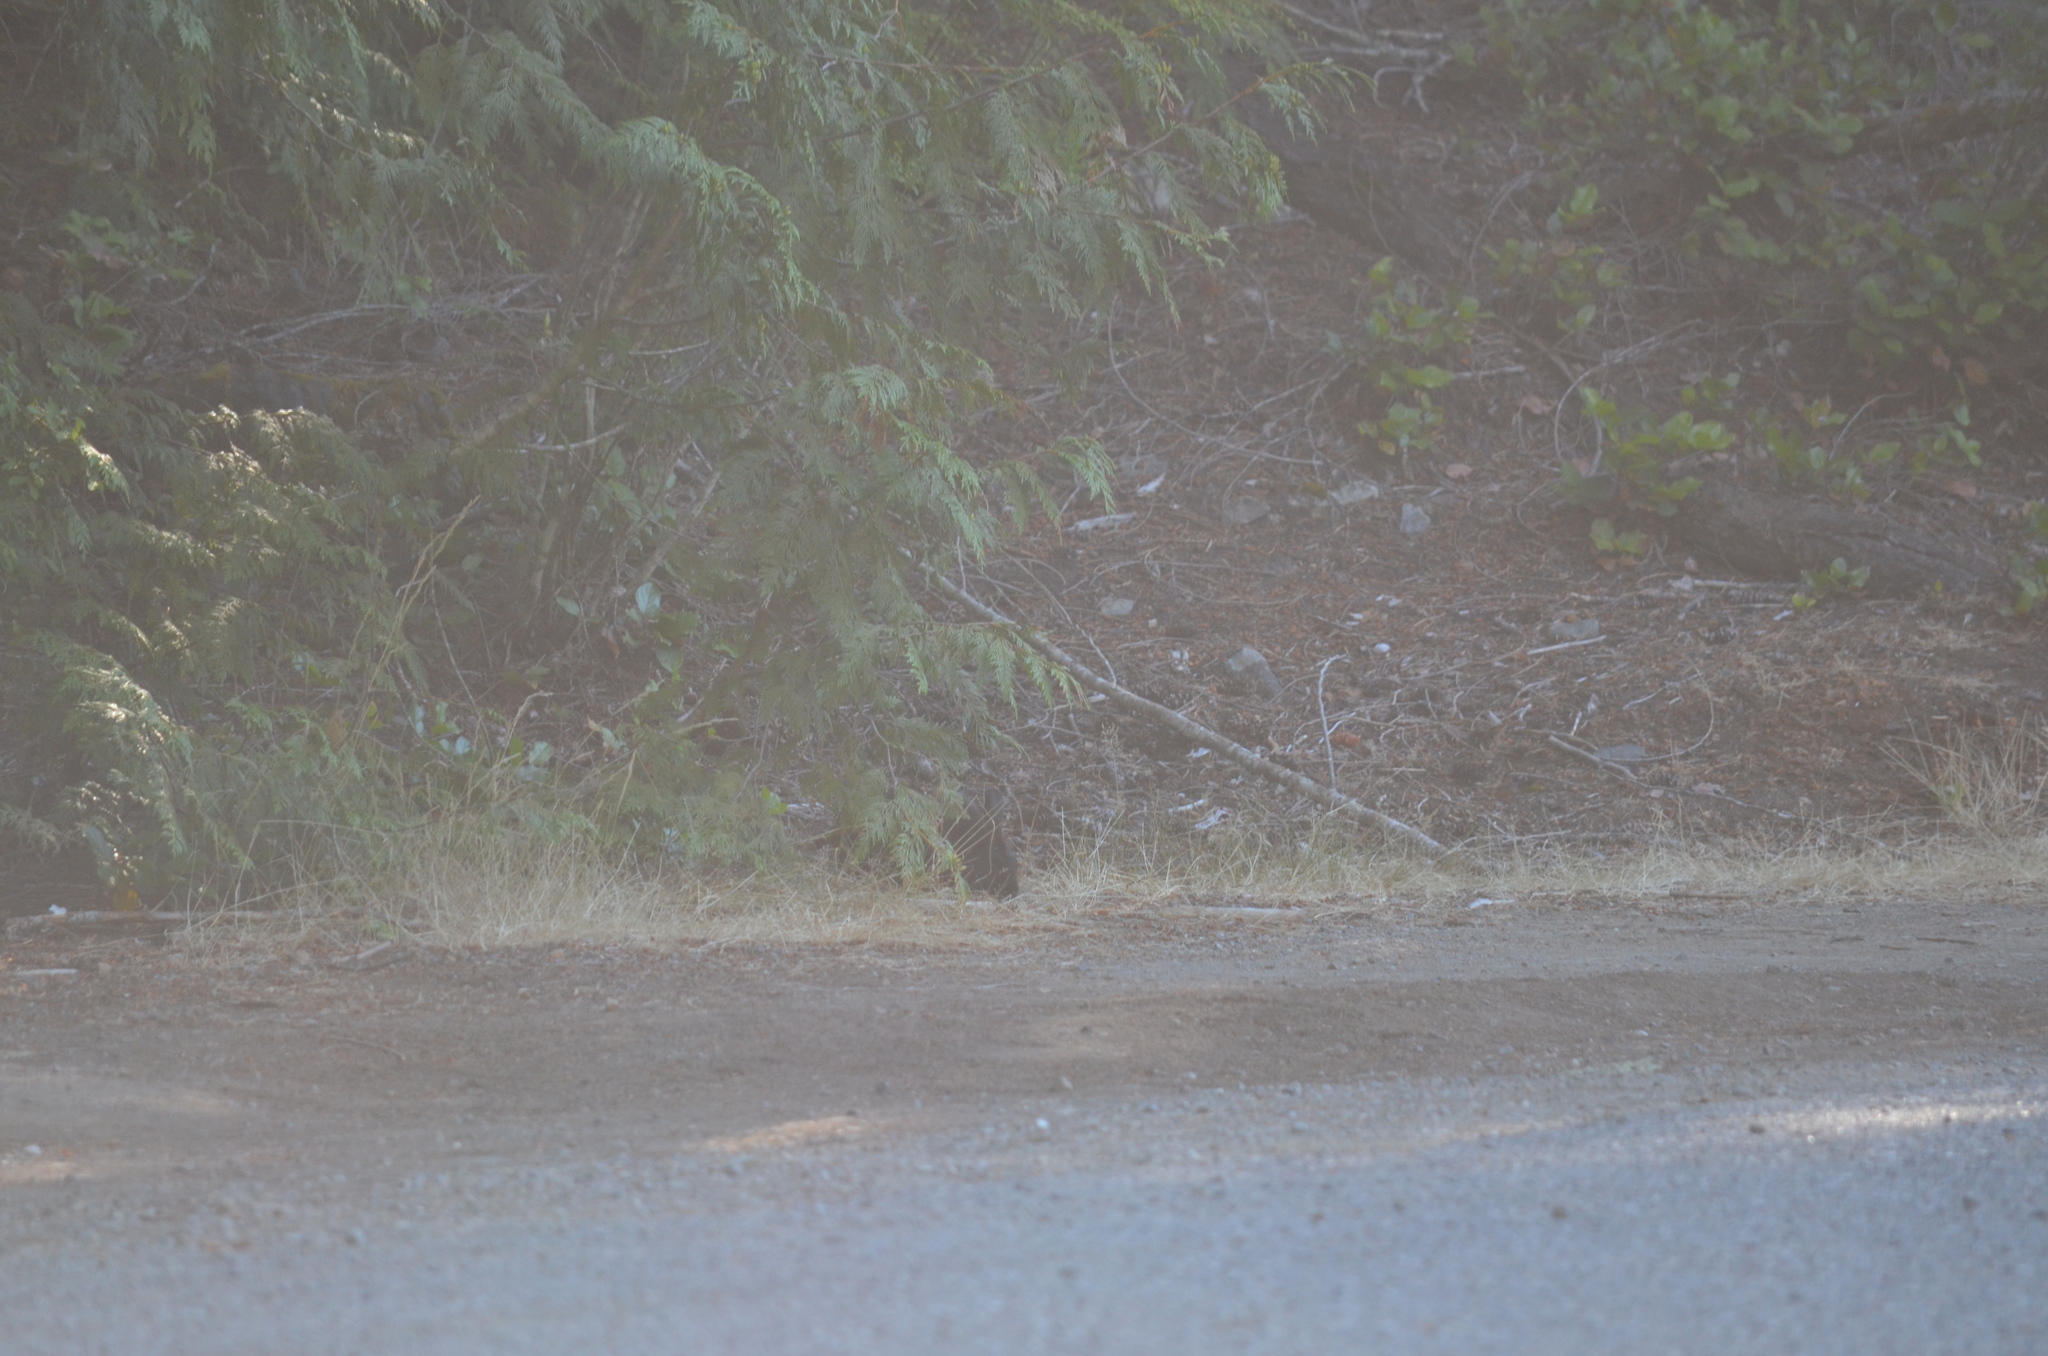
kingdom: Animalia
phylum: Chordata
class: Mammalia
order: Lagomorpha
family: Leporidae
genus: Oryctolagus
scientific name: Oryctolagus cuniculus
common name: European rabbit
